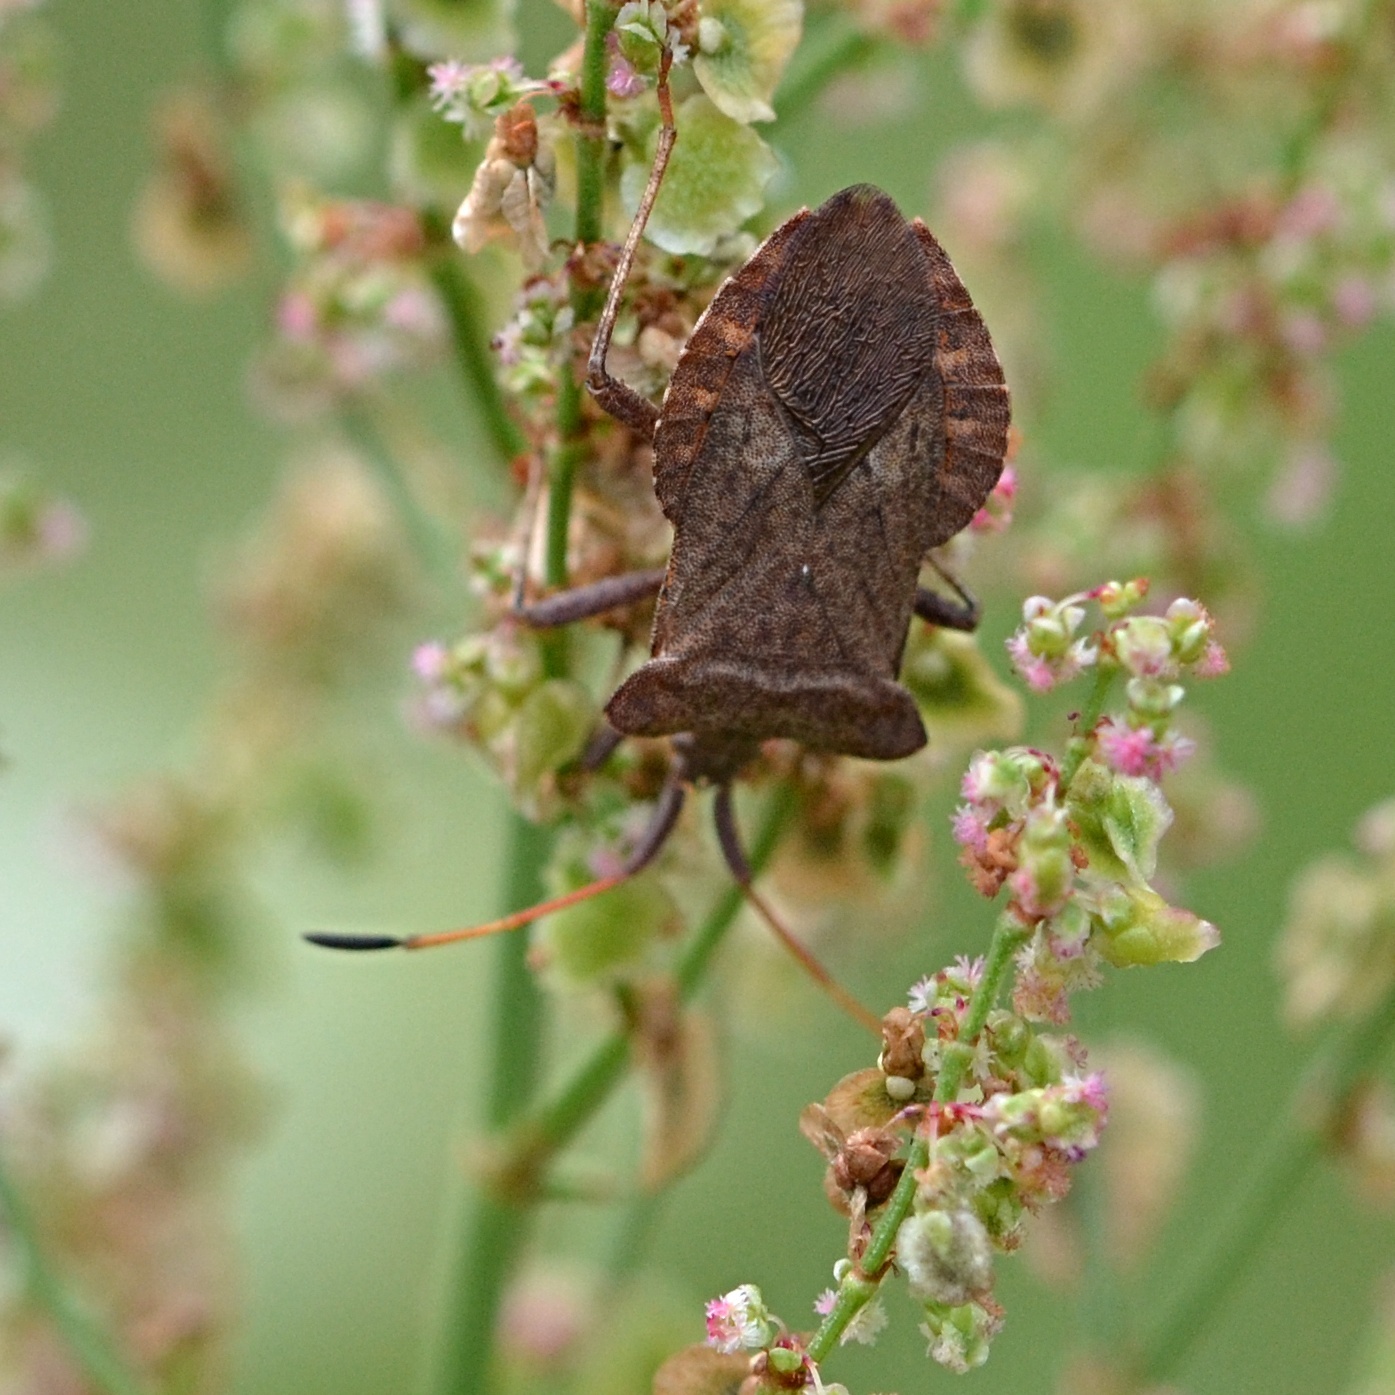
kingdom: Animalia
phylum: Arthropoda
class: Insecta
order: Hemiptera
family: Coreidae
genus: Coreus
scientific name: Coreus marginatus
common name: Dock bug
